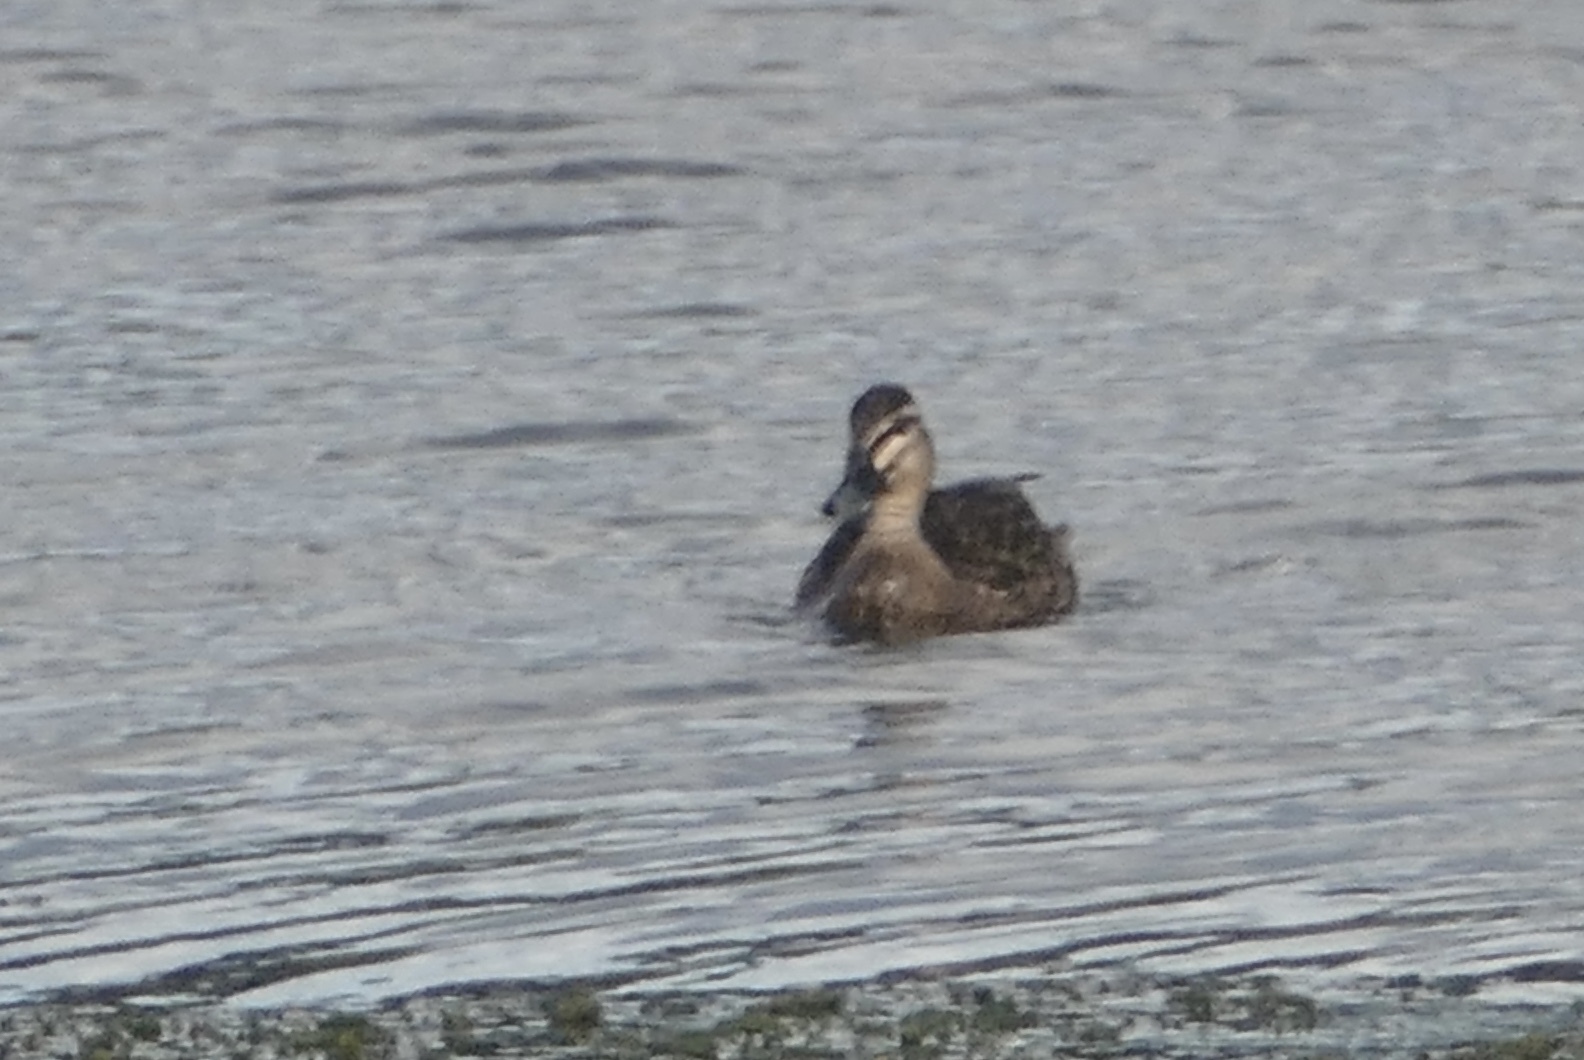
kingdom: Animalia
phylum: Chordata
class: Aves
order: Anseriformes
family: Anatidae
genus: Anas
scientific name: Anas
